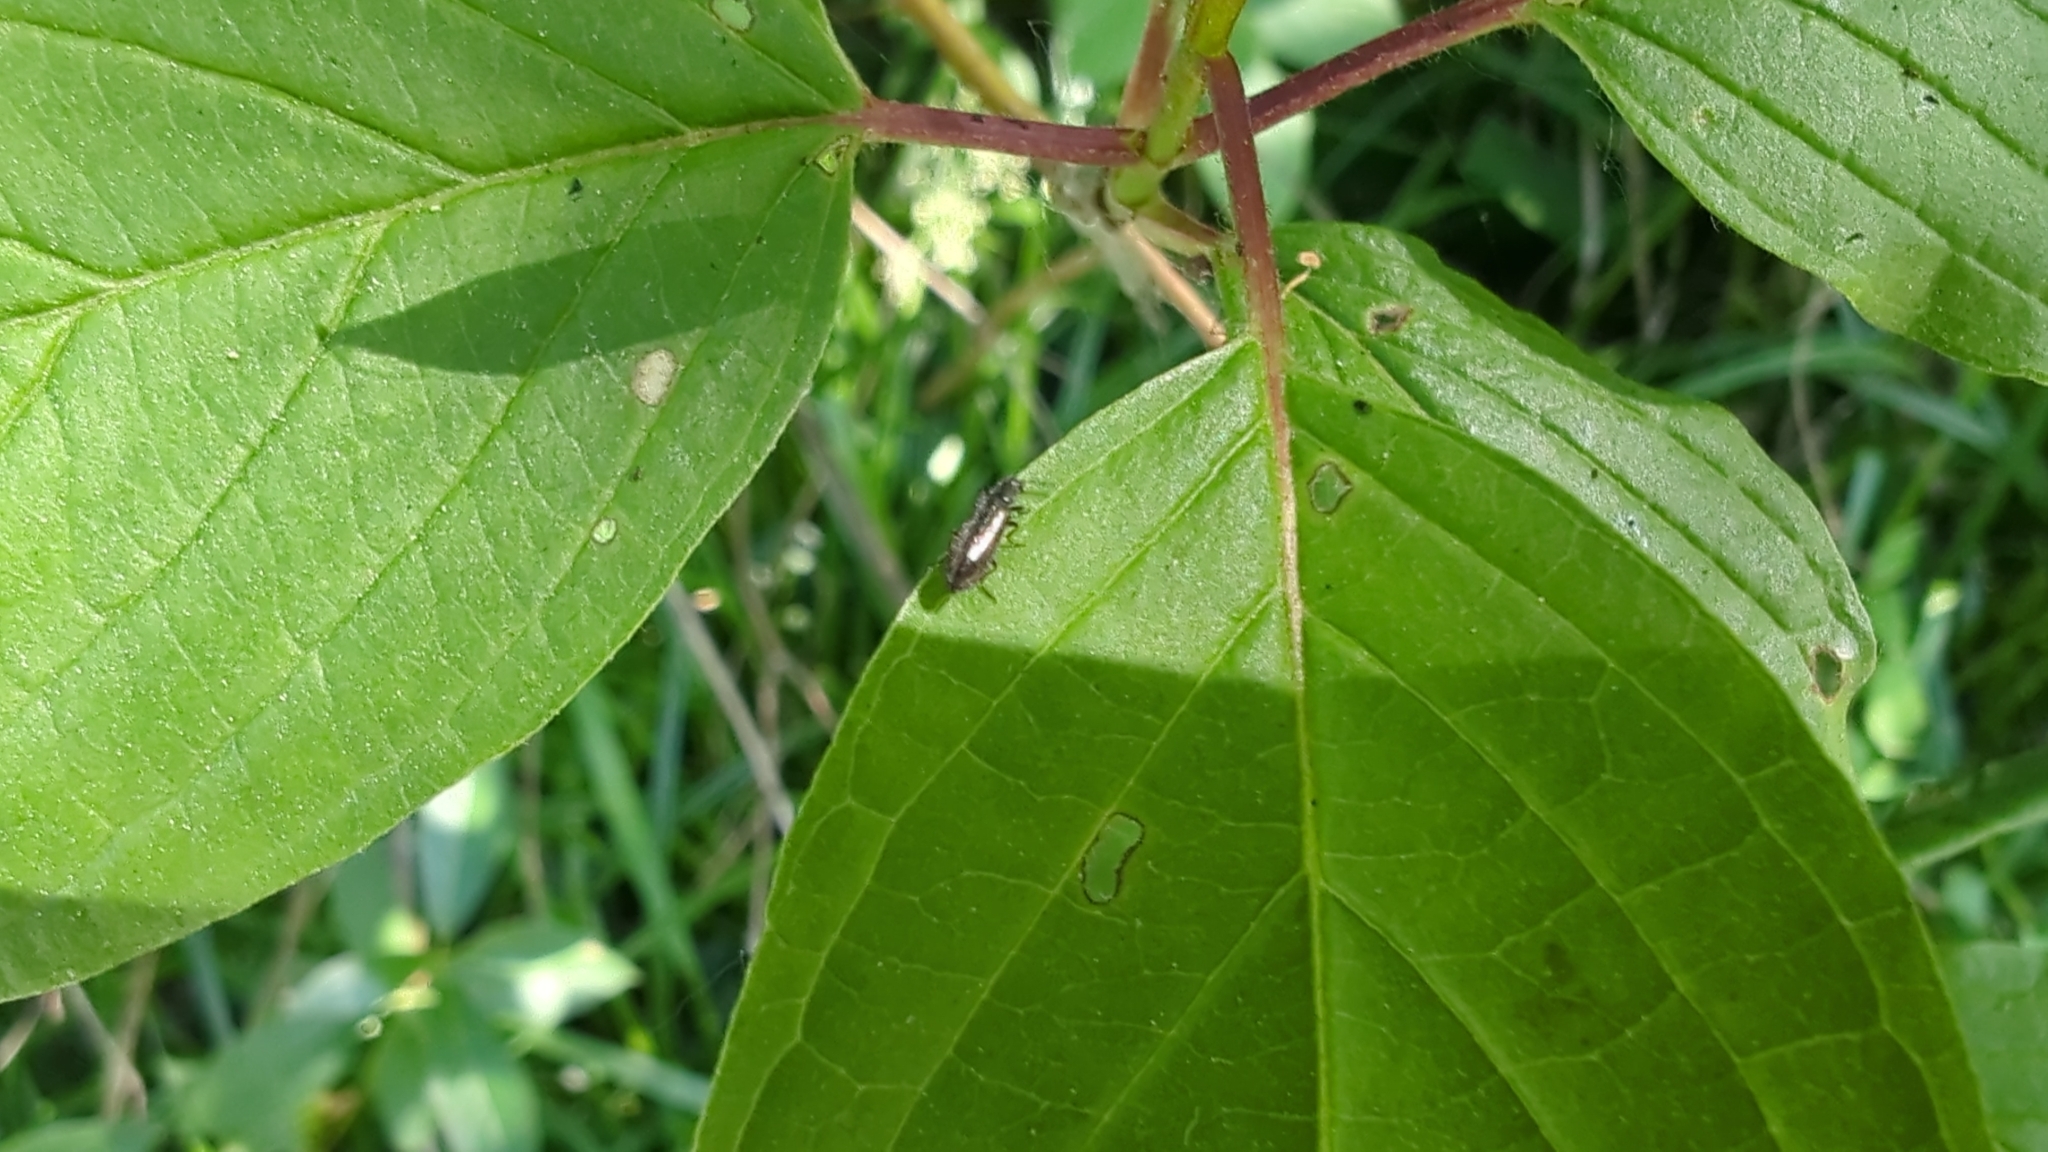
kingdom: Animalia
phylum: Arthropoda
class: Insecta
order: Coleoptera
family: Melyridae
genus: Dasytes
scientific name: Dasytes plumbeus
